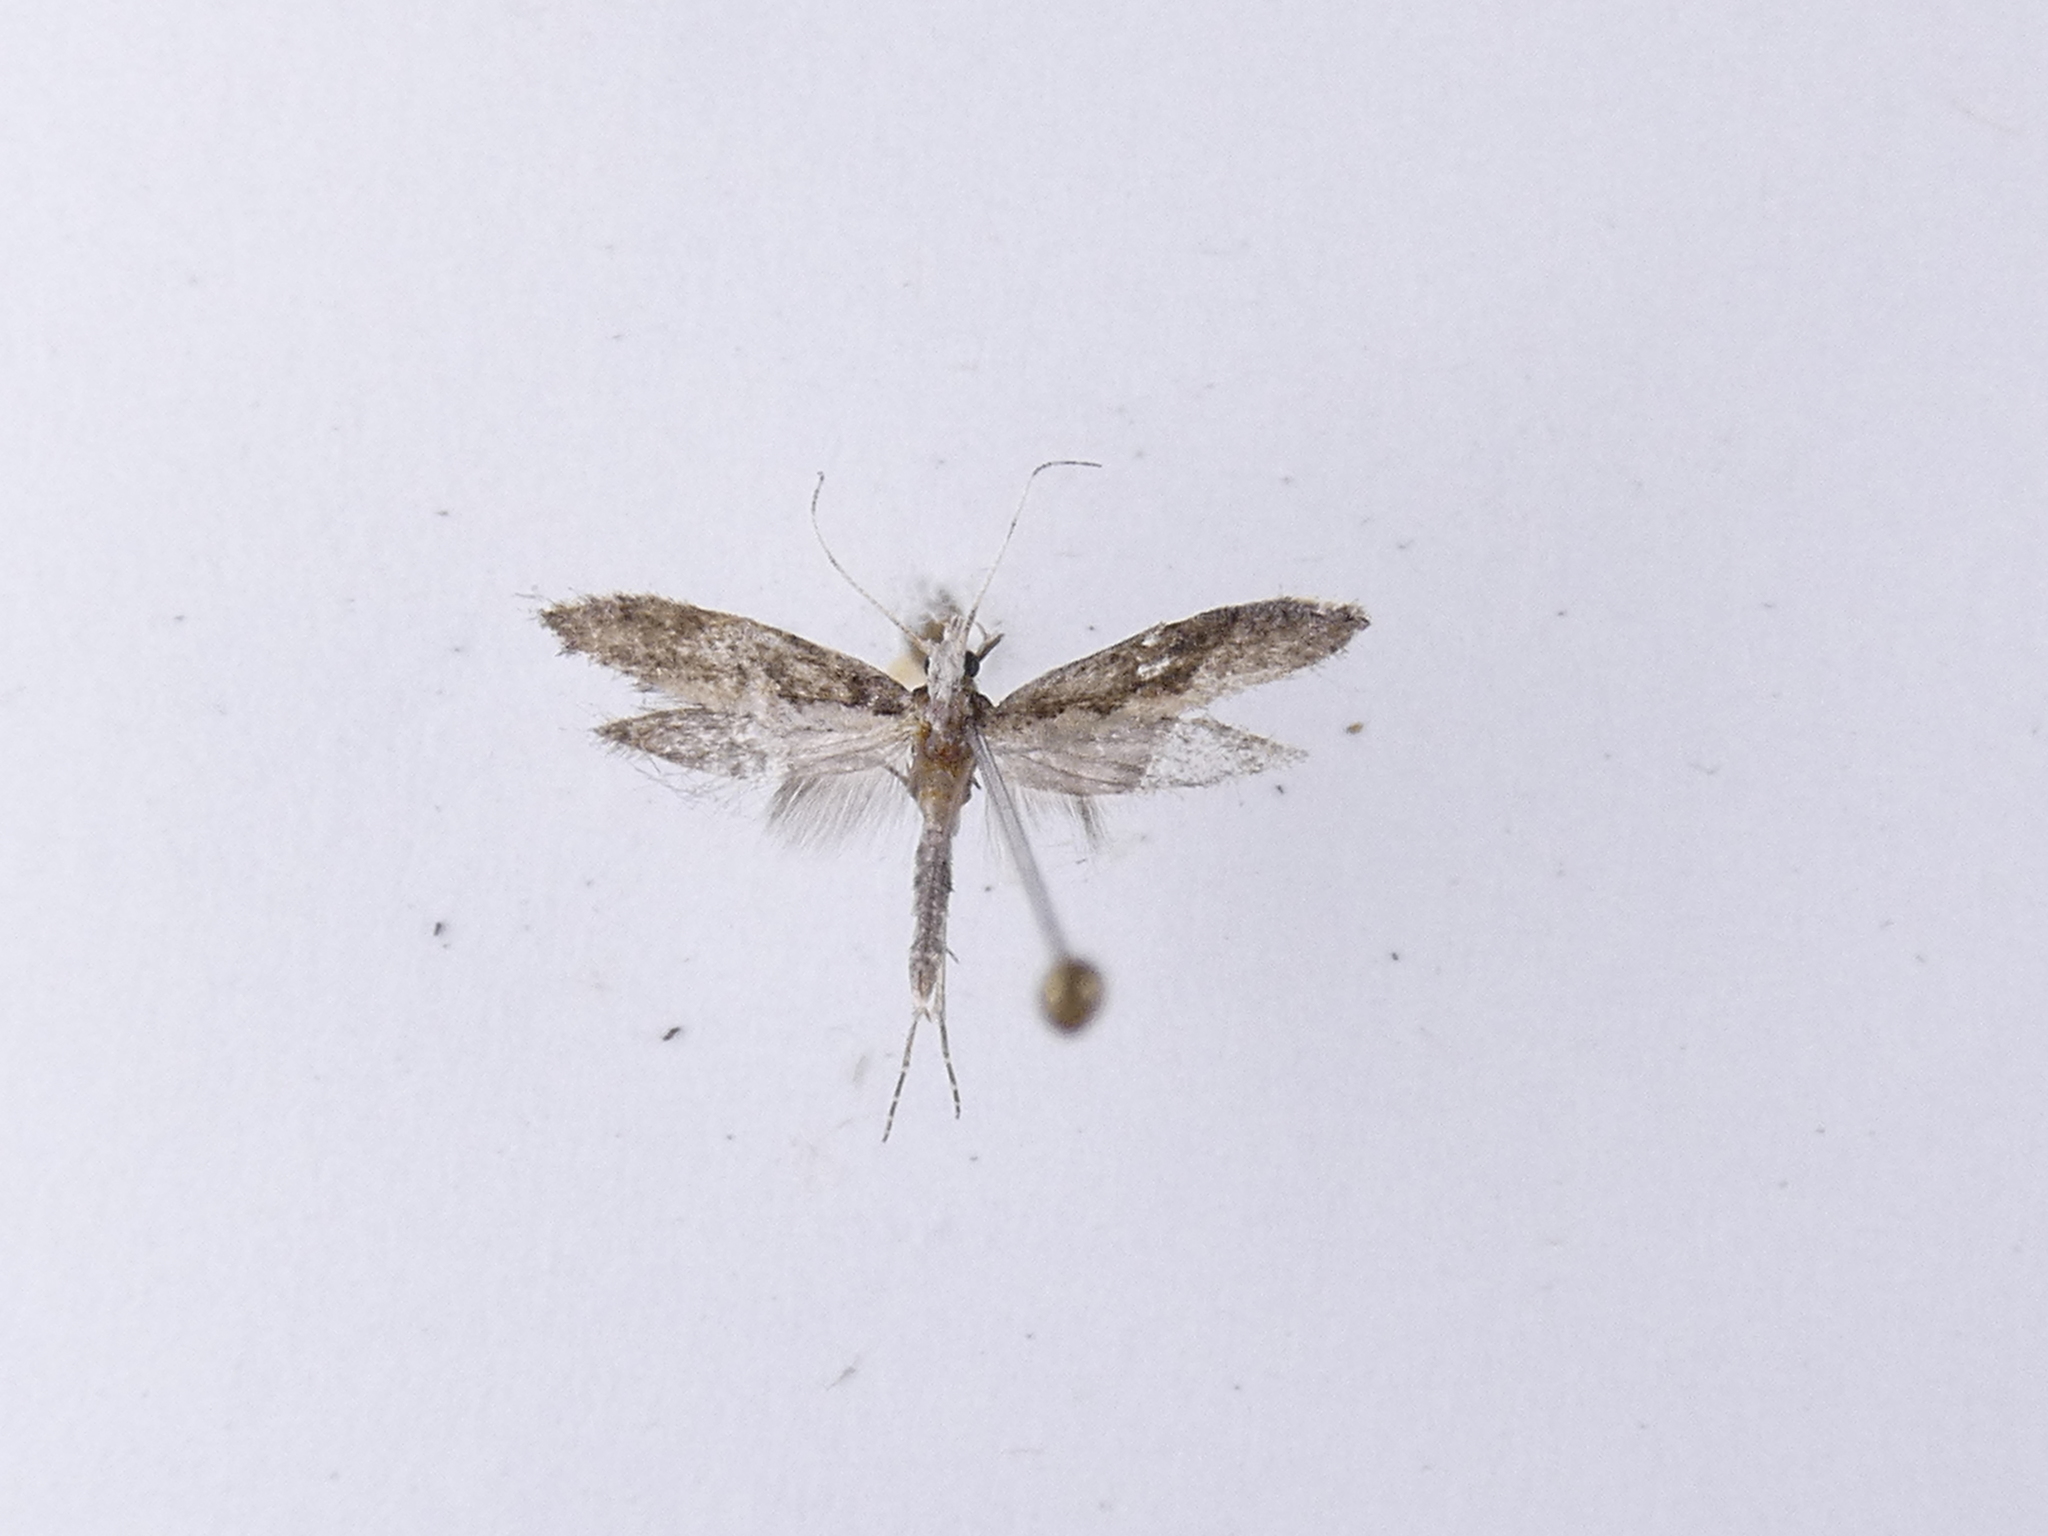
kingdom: Animalia
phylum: Arthropoda
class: Insecta
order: Lepidoptera
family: Plutellidae
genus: Plutella
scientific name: Plutella xylostella
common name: Diamond-back moth
